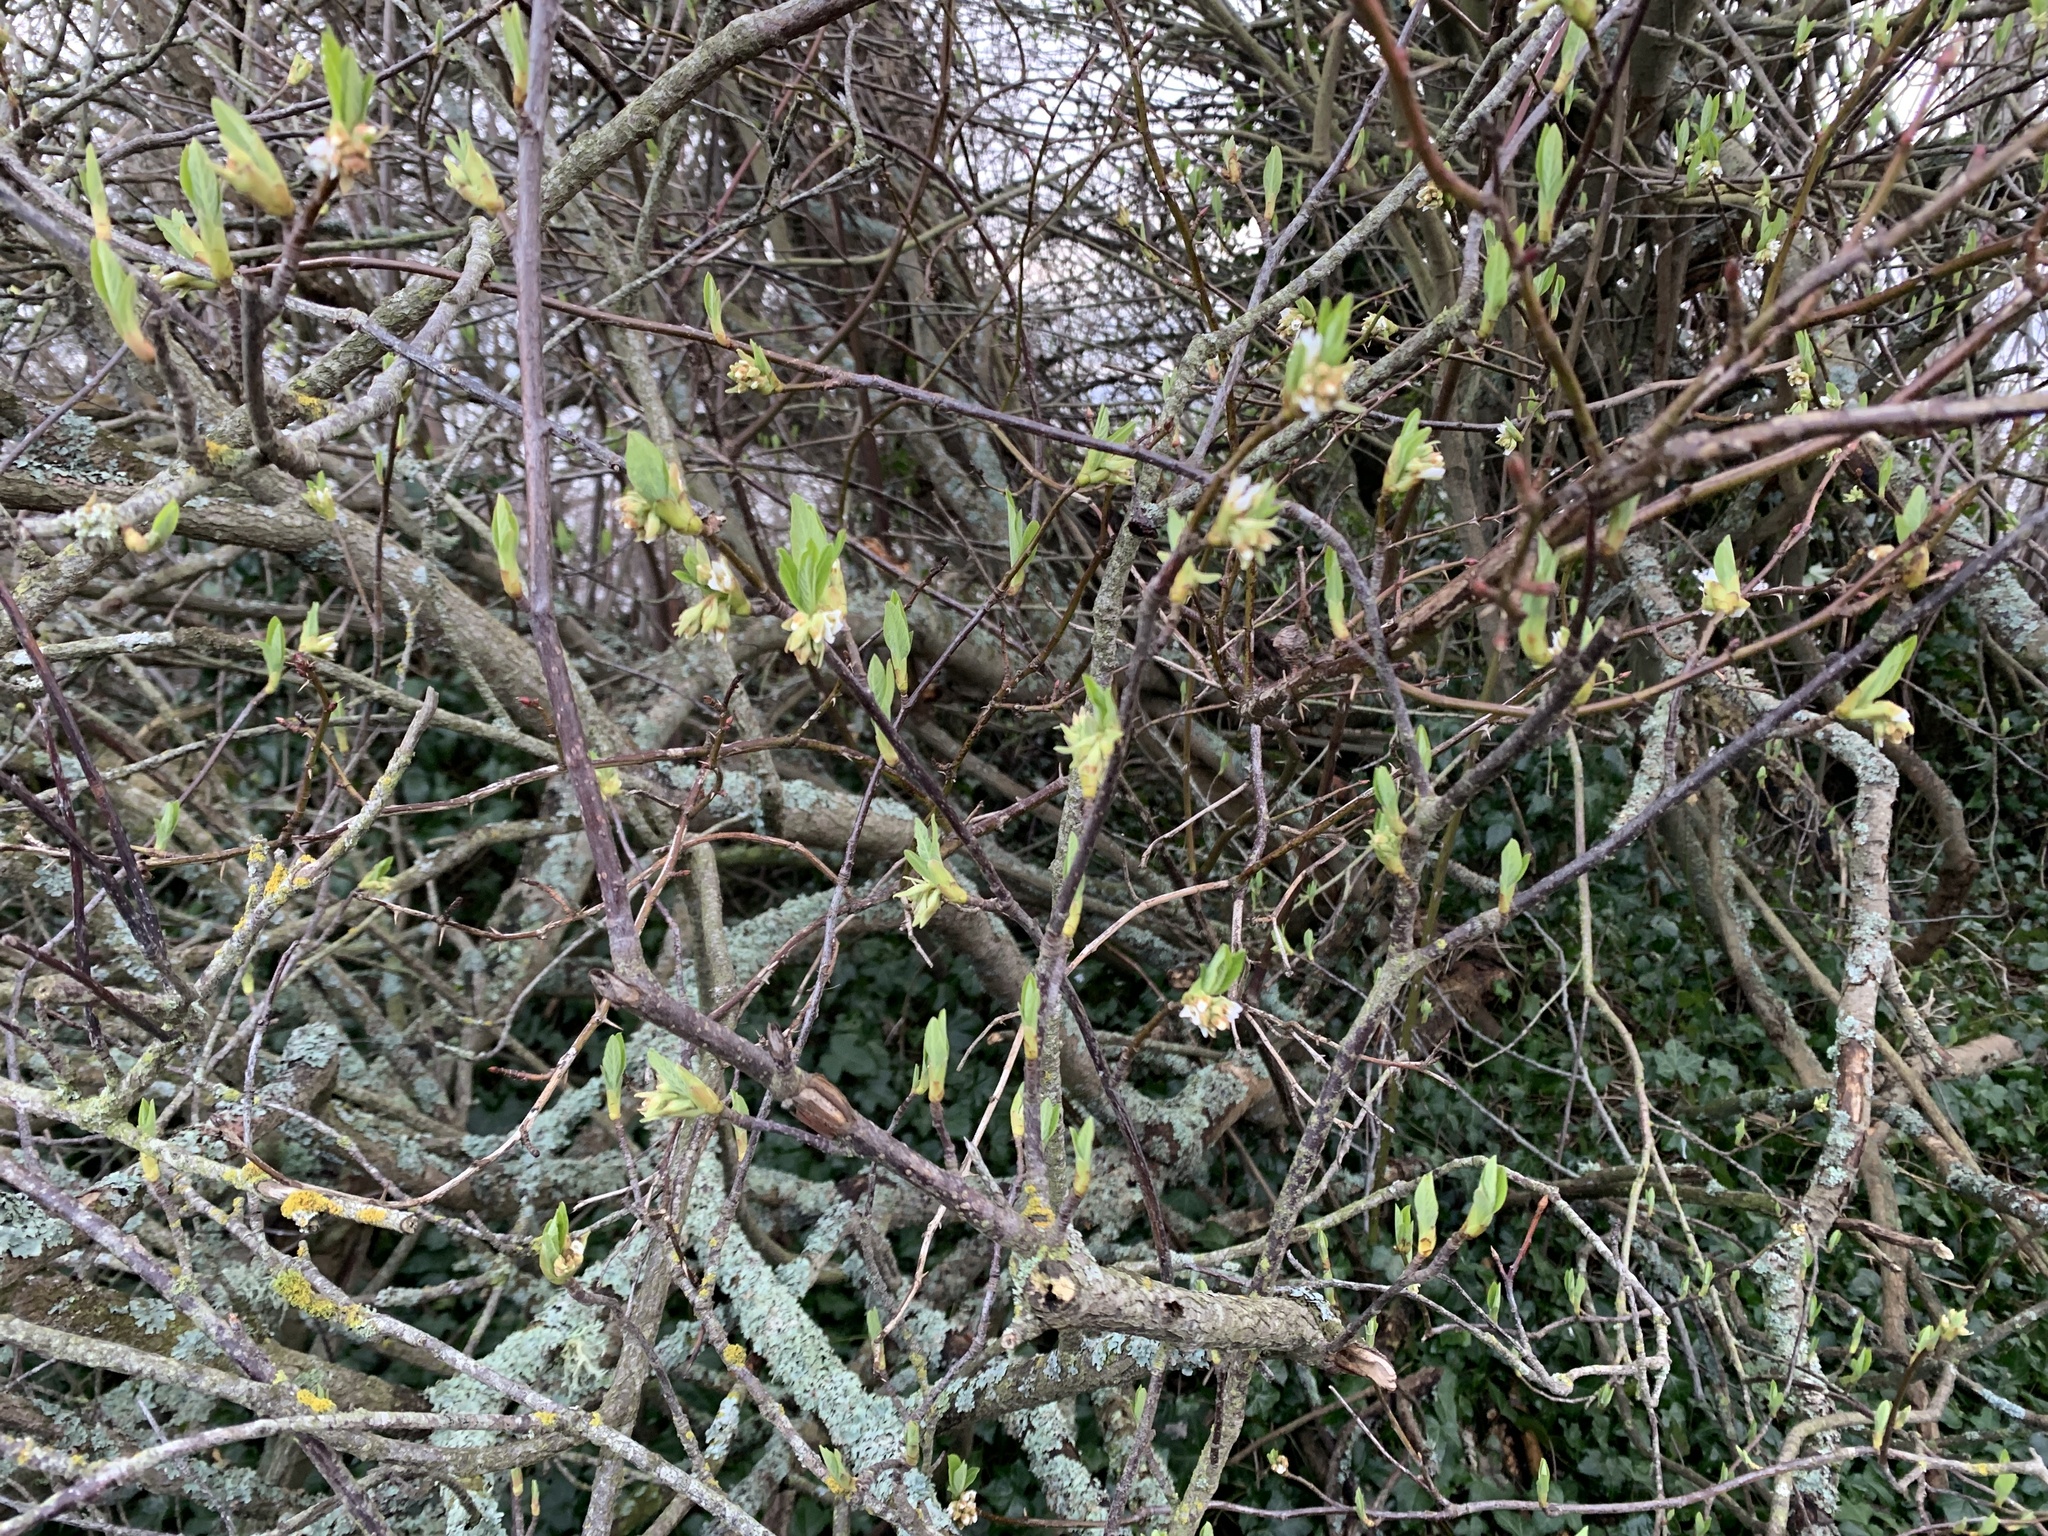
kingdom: Plantae
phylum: Tracheophyta
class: Magnoliopsida
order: Rosales
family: Rosaceae
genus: Oemleria
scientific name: Oemleria cerasiformis
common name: Osoberry
